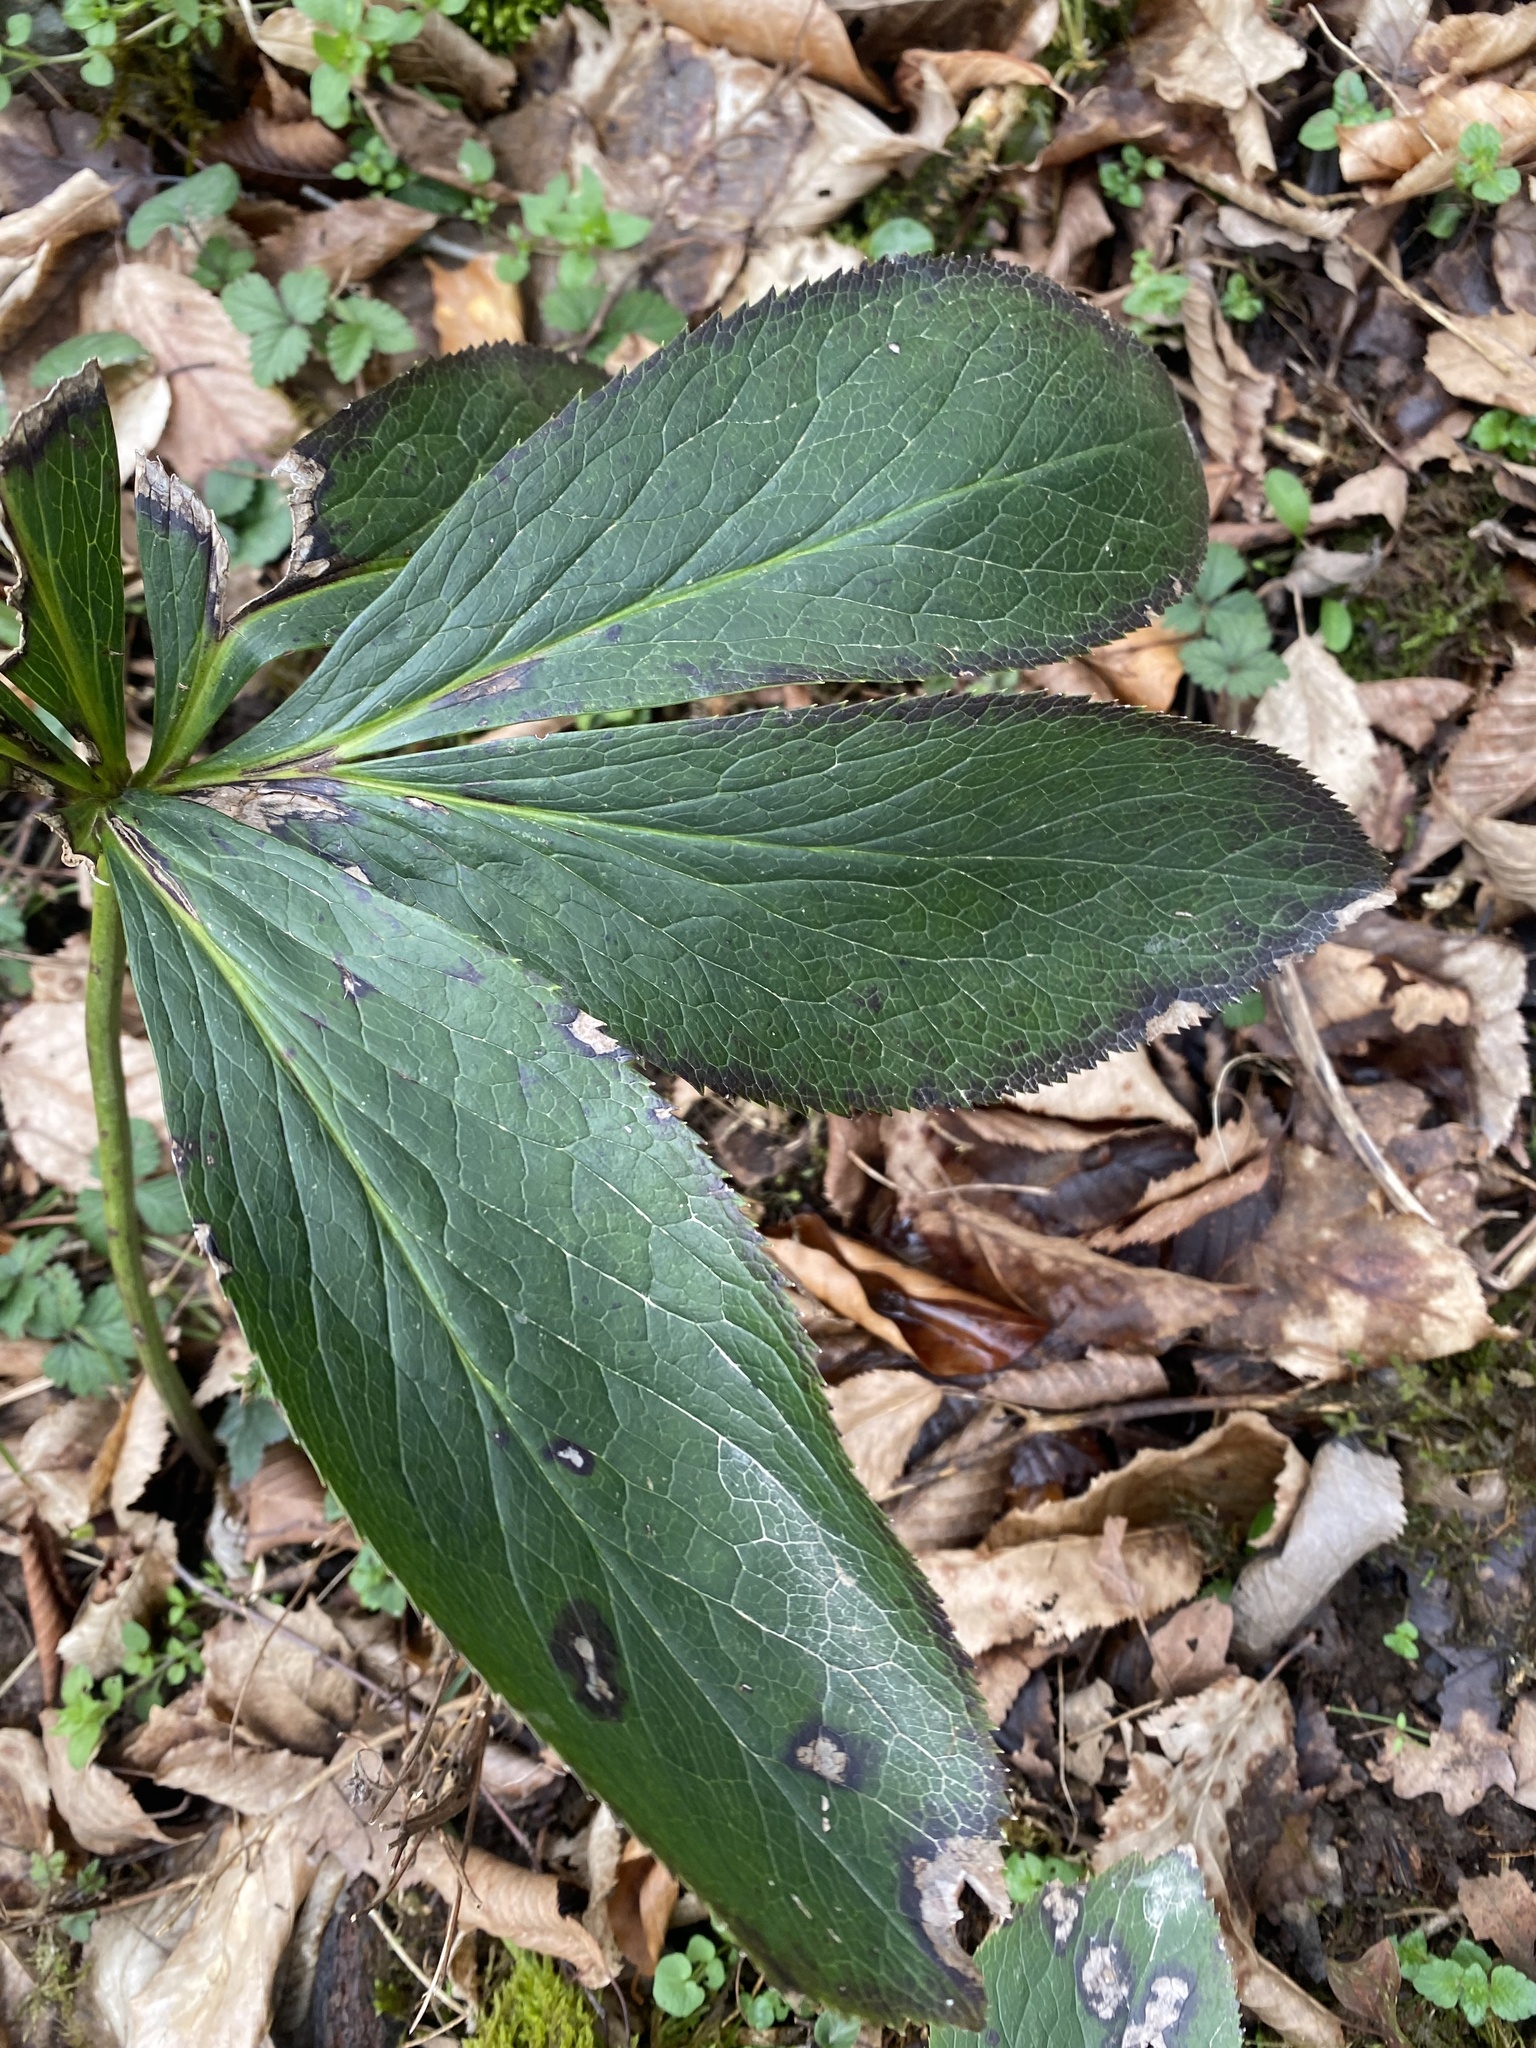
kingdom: Plantae
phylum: Tracheophyta
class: Magnoliopsida
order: Ranunculales
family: Ranunculaceae
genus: Helleborus
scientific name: Helleborus orientalis
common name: Lenten-rose
